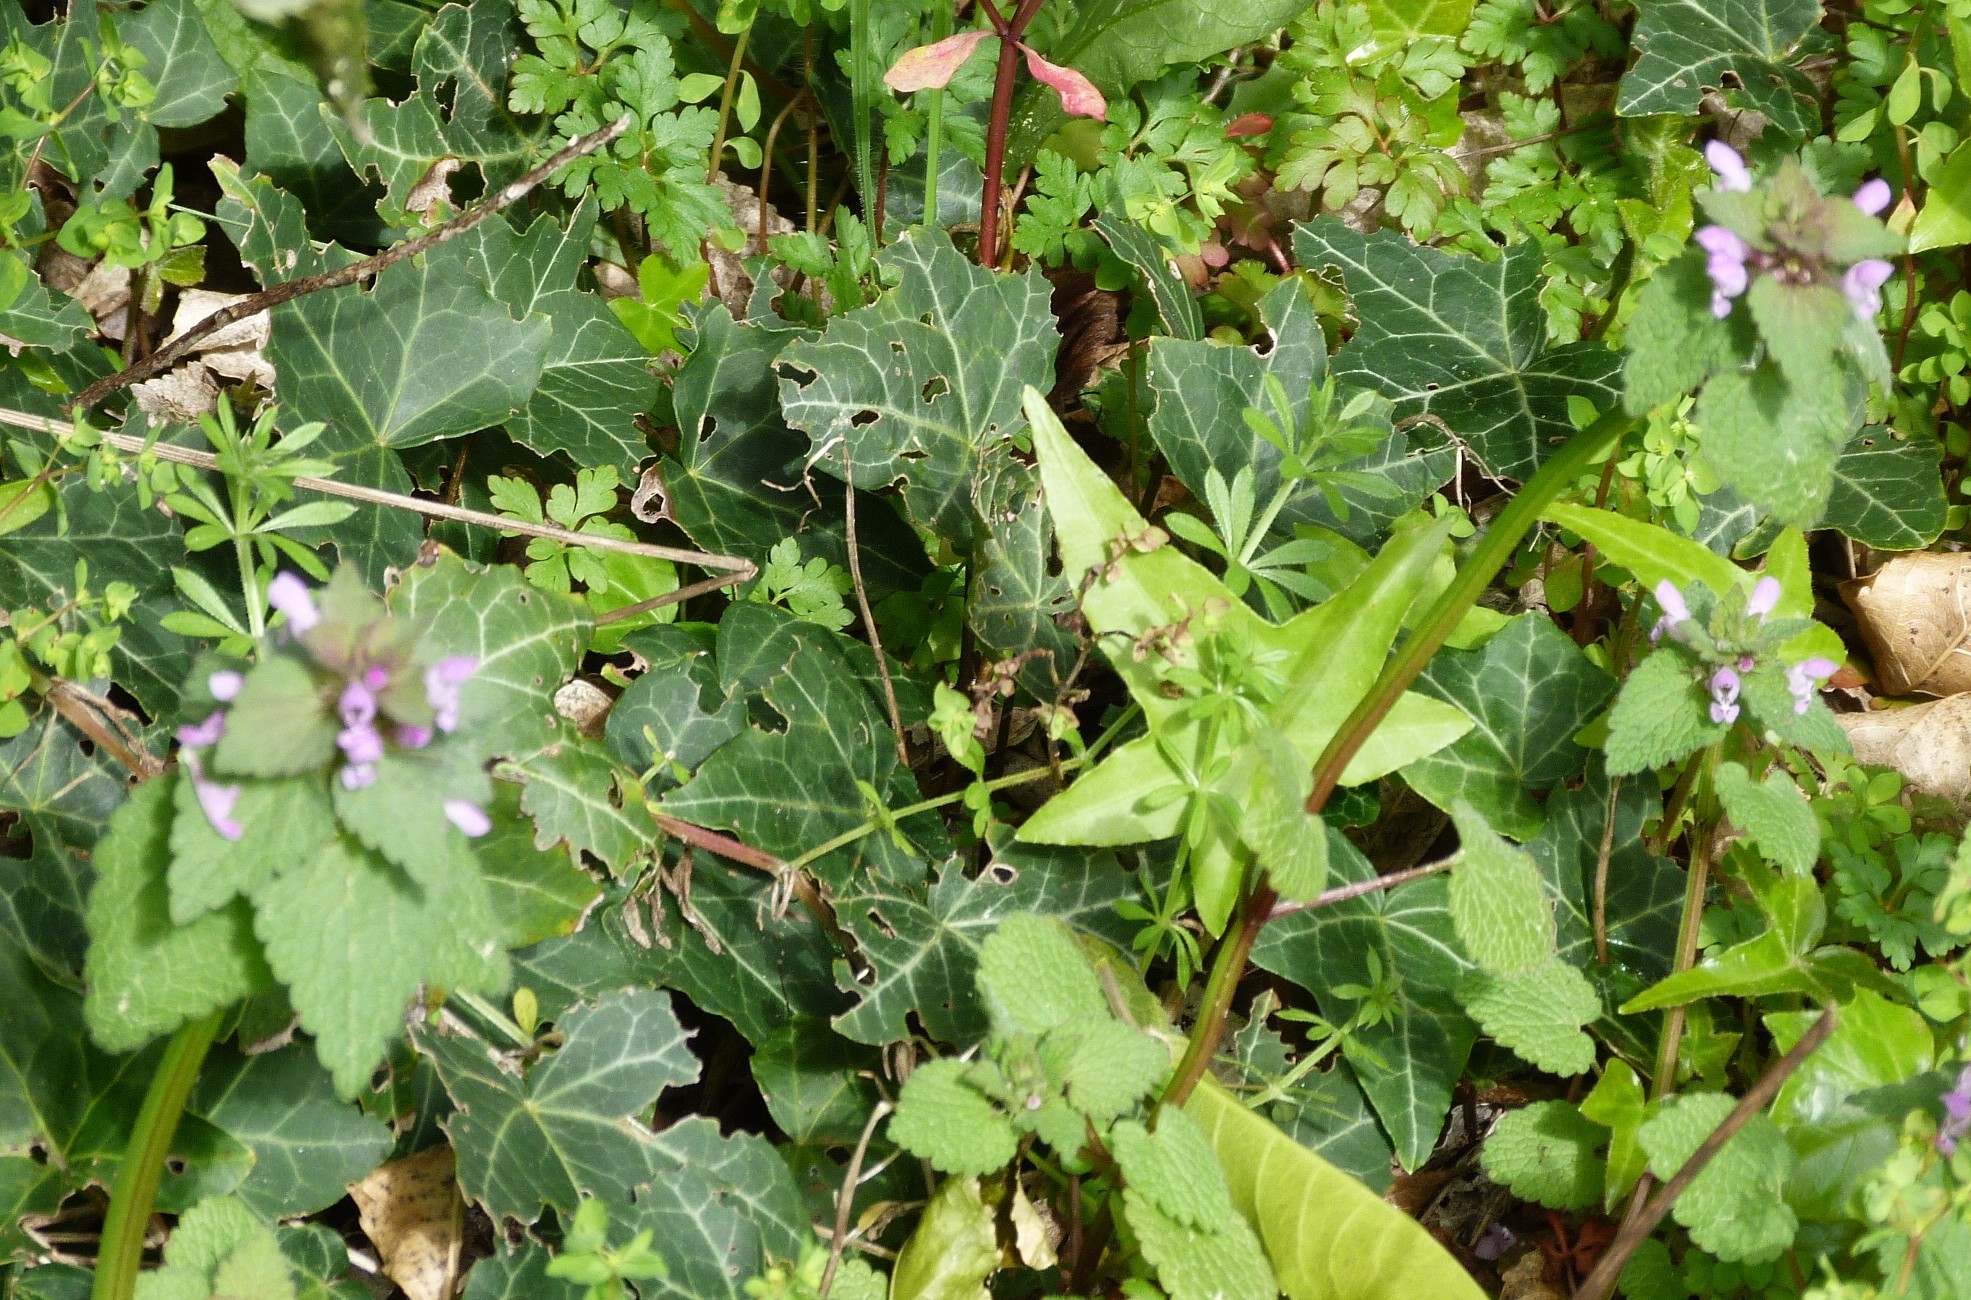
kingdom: Plantae
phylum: Tracheophyta
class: Magnoliopsida
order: Lamiales
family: Lamiaceae
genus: Lamium
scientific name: Lamium purpureum
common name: Red dead-nettle
